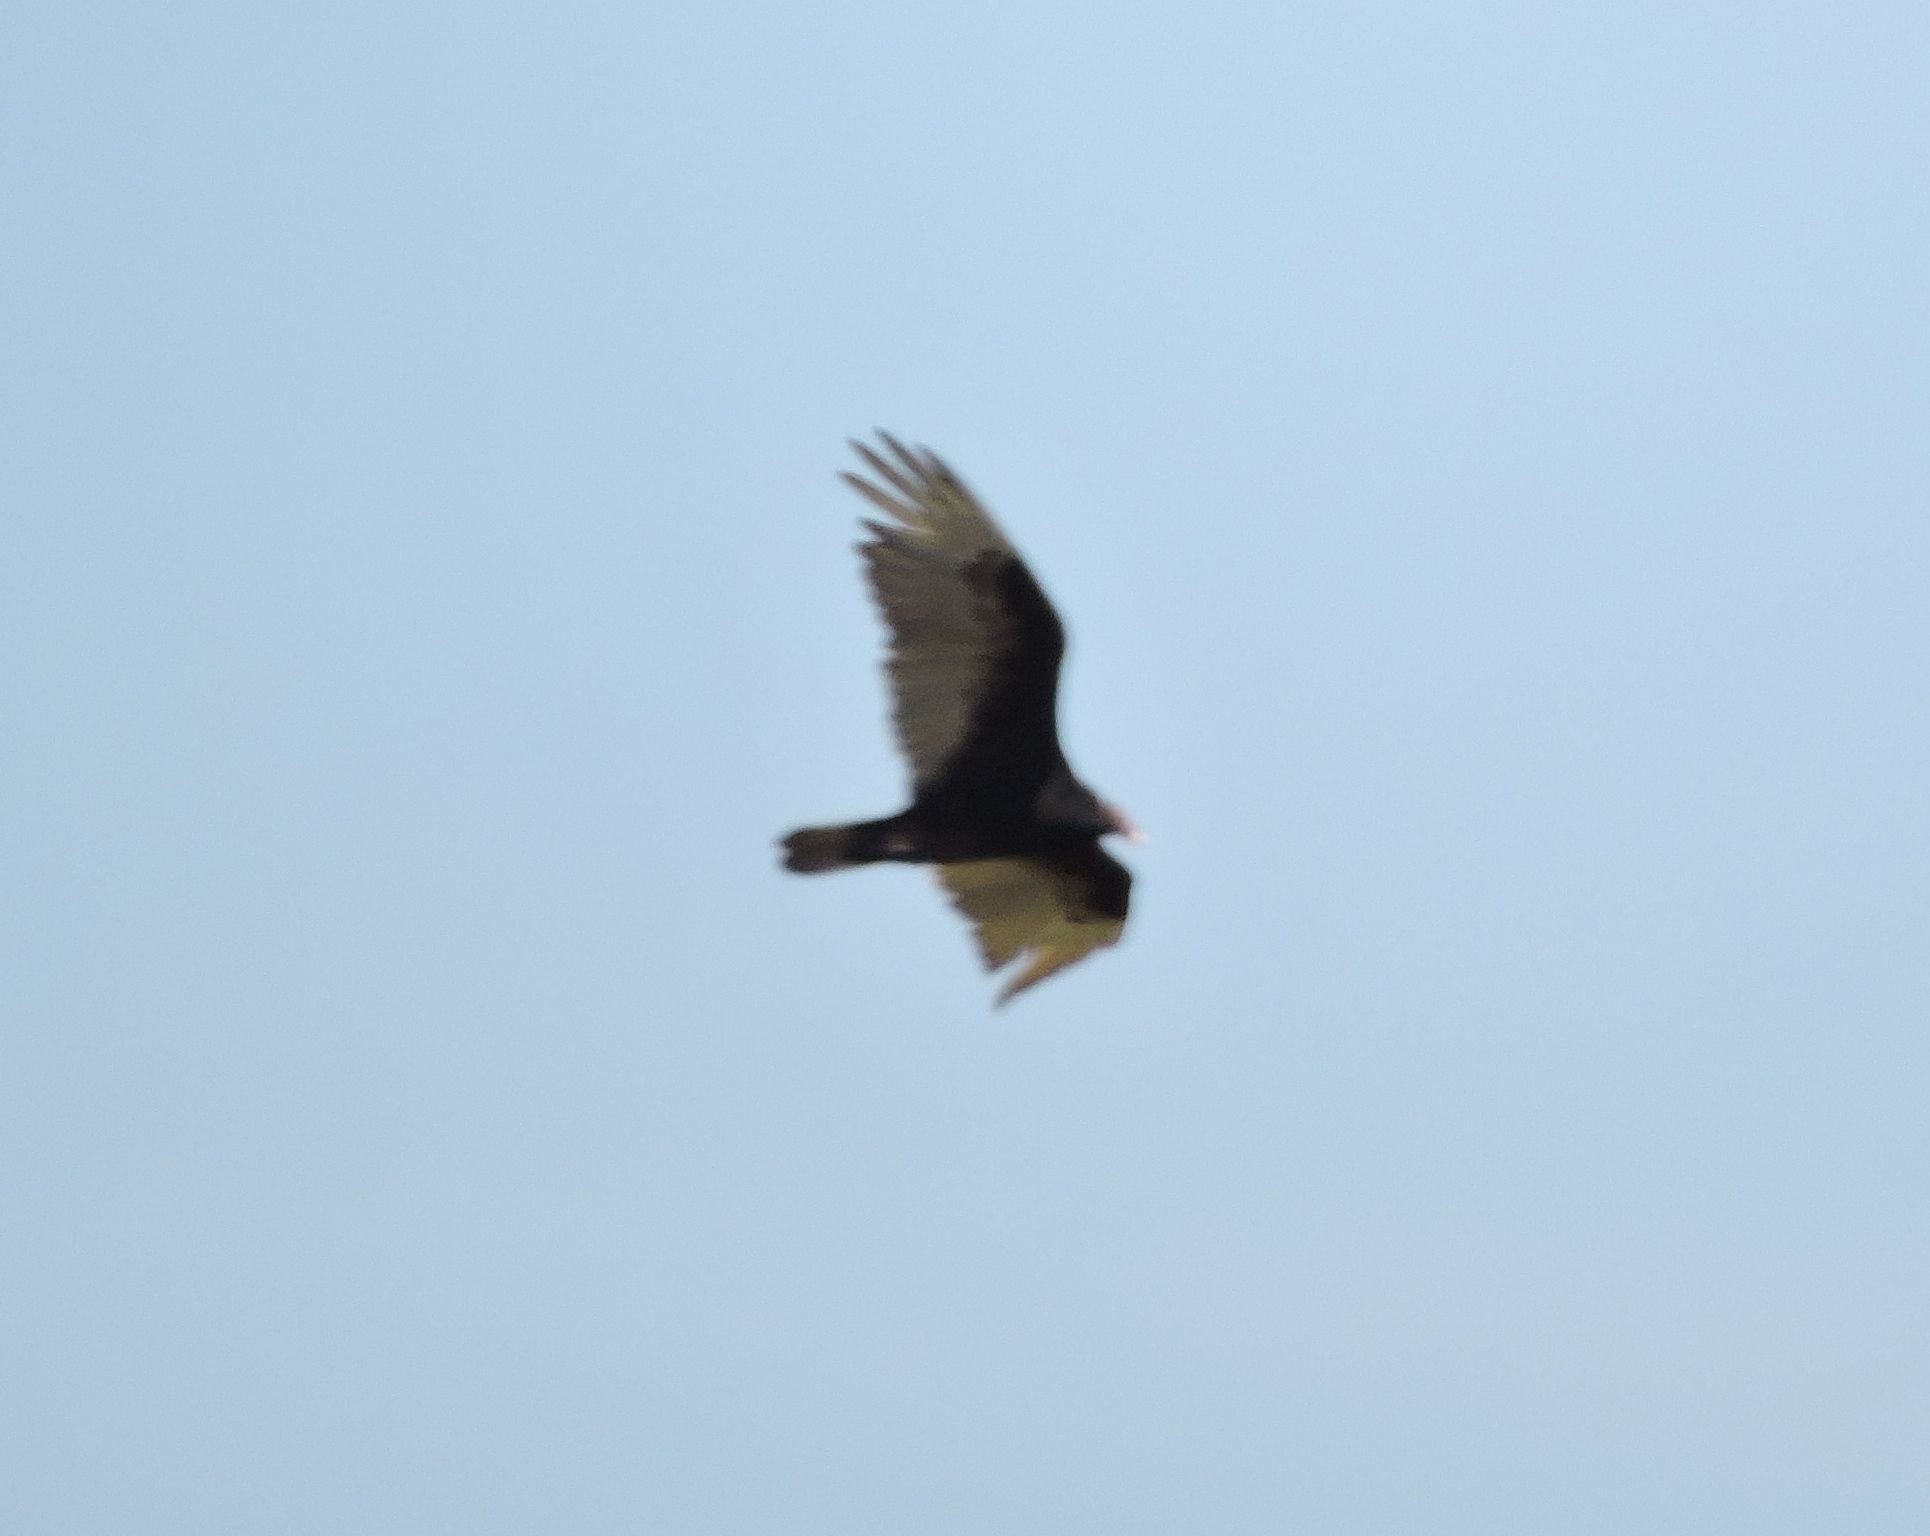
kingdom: Animalia
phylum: Chordata
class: Aves
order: Accipitriformes
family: Cathartidae
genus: Cathartes
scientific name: Cathartes aura
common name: Turkey vulture
